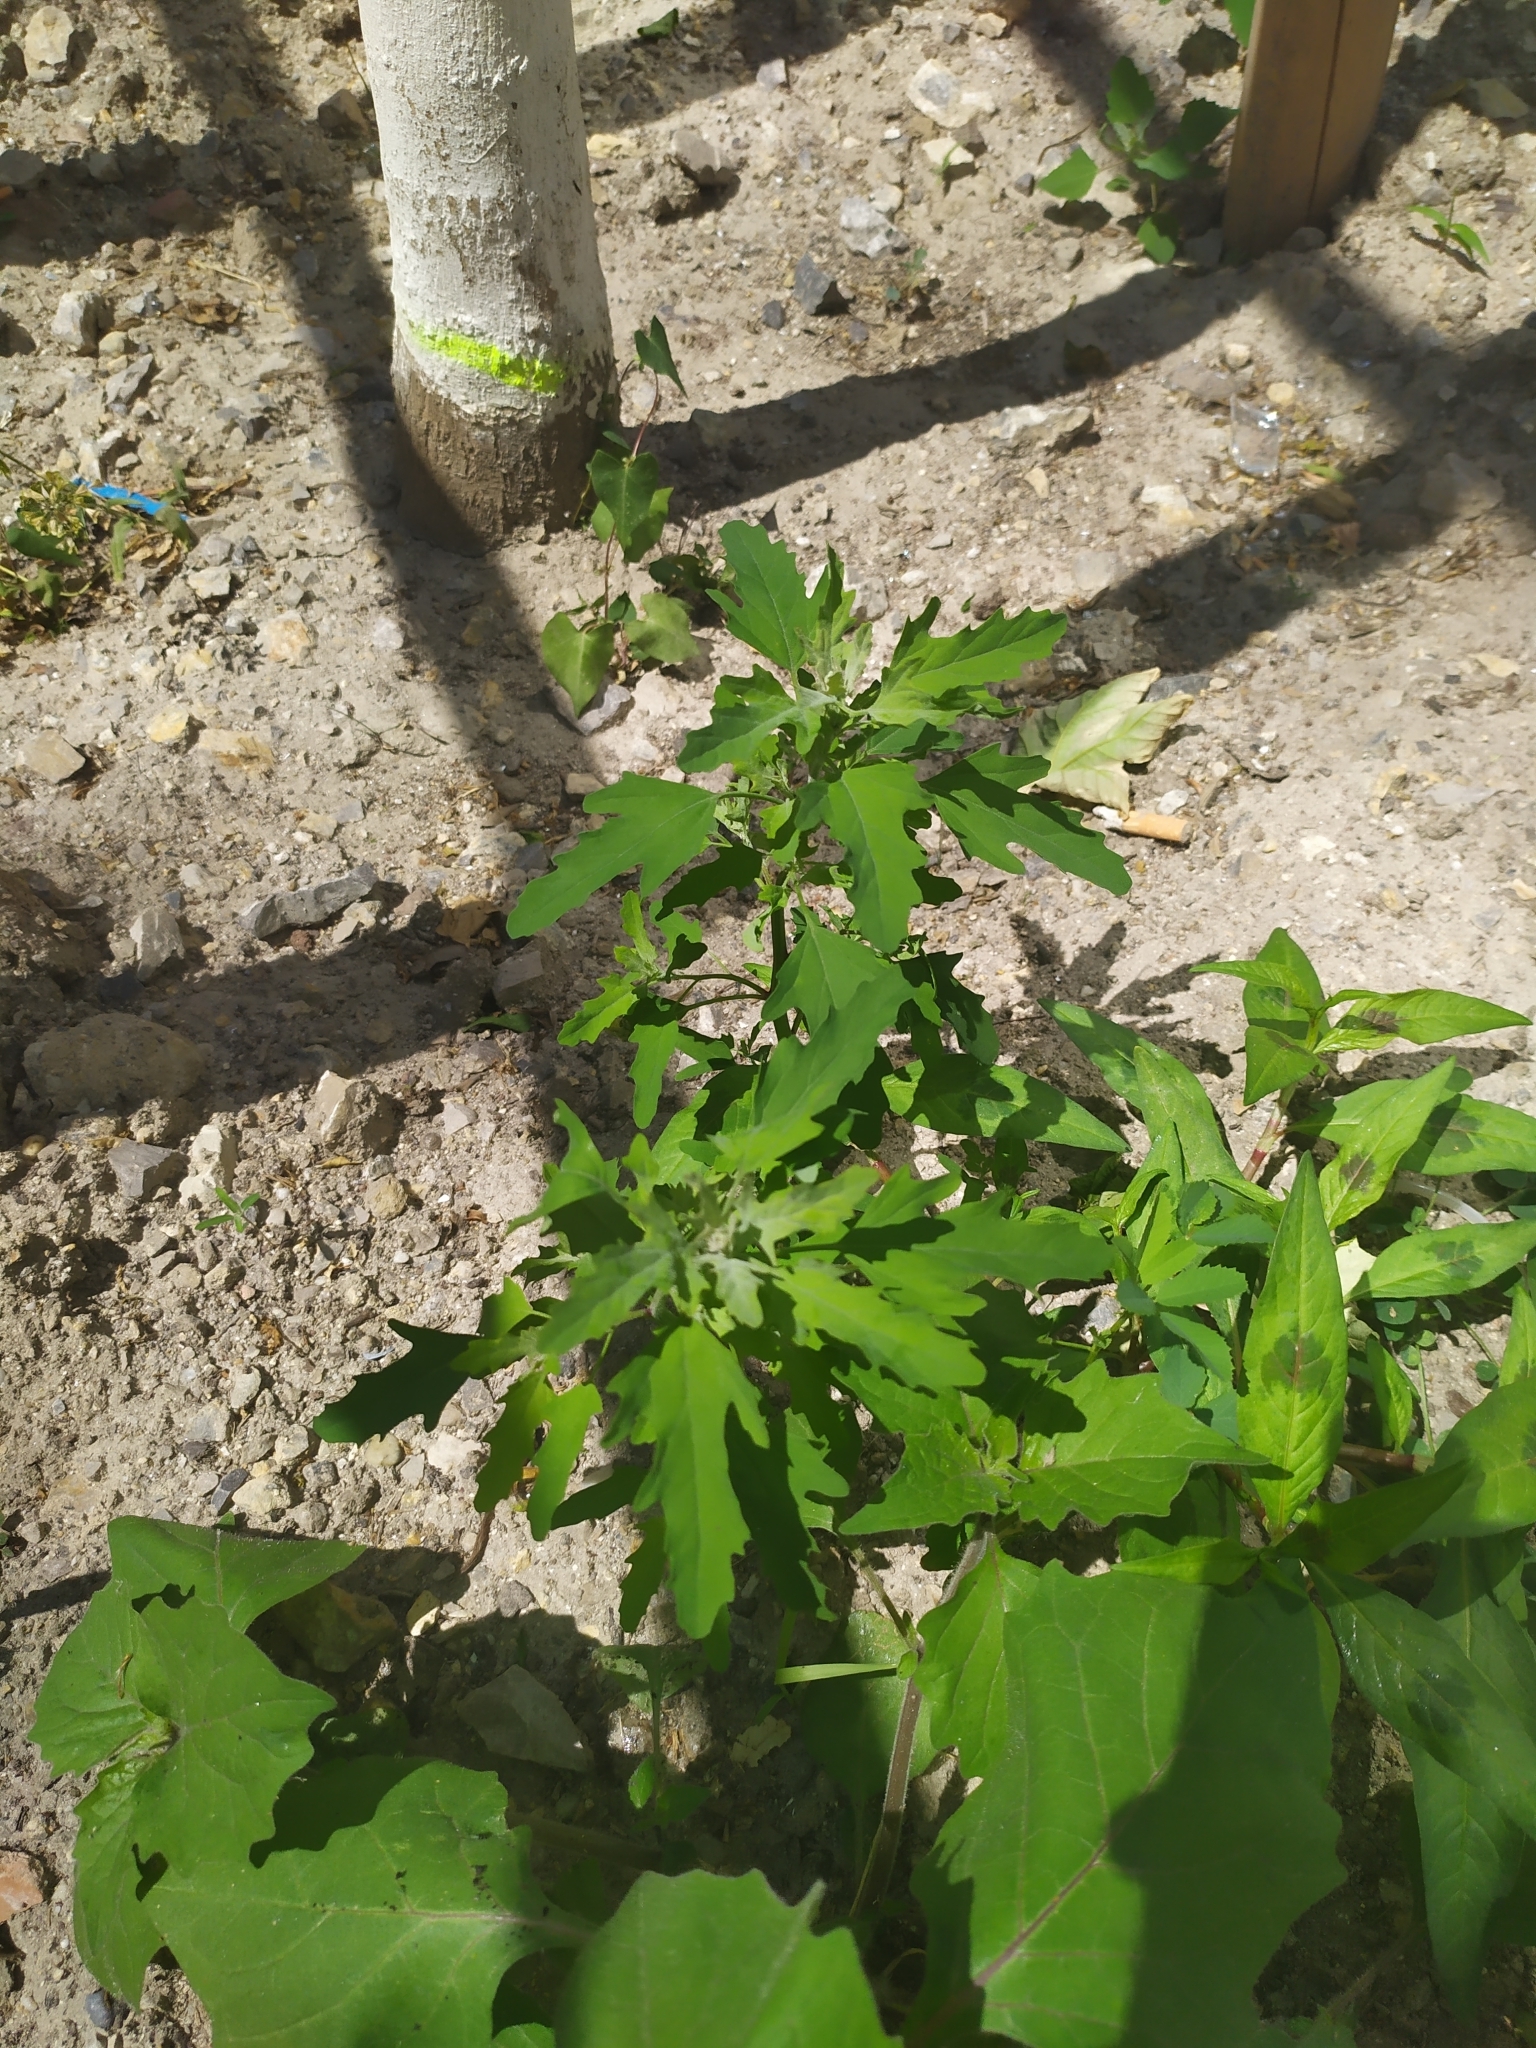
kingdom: Plantae
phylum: Tracheophyta
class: Magnoliopsida
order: Caryophyllales
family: Amaranthaceae
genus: Chenopodium
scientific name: Chenopodium ficifolium
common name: Fig-leaved goosefoot
